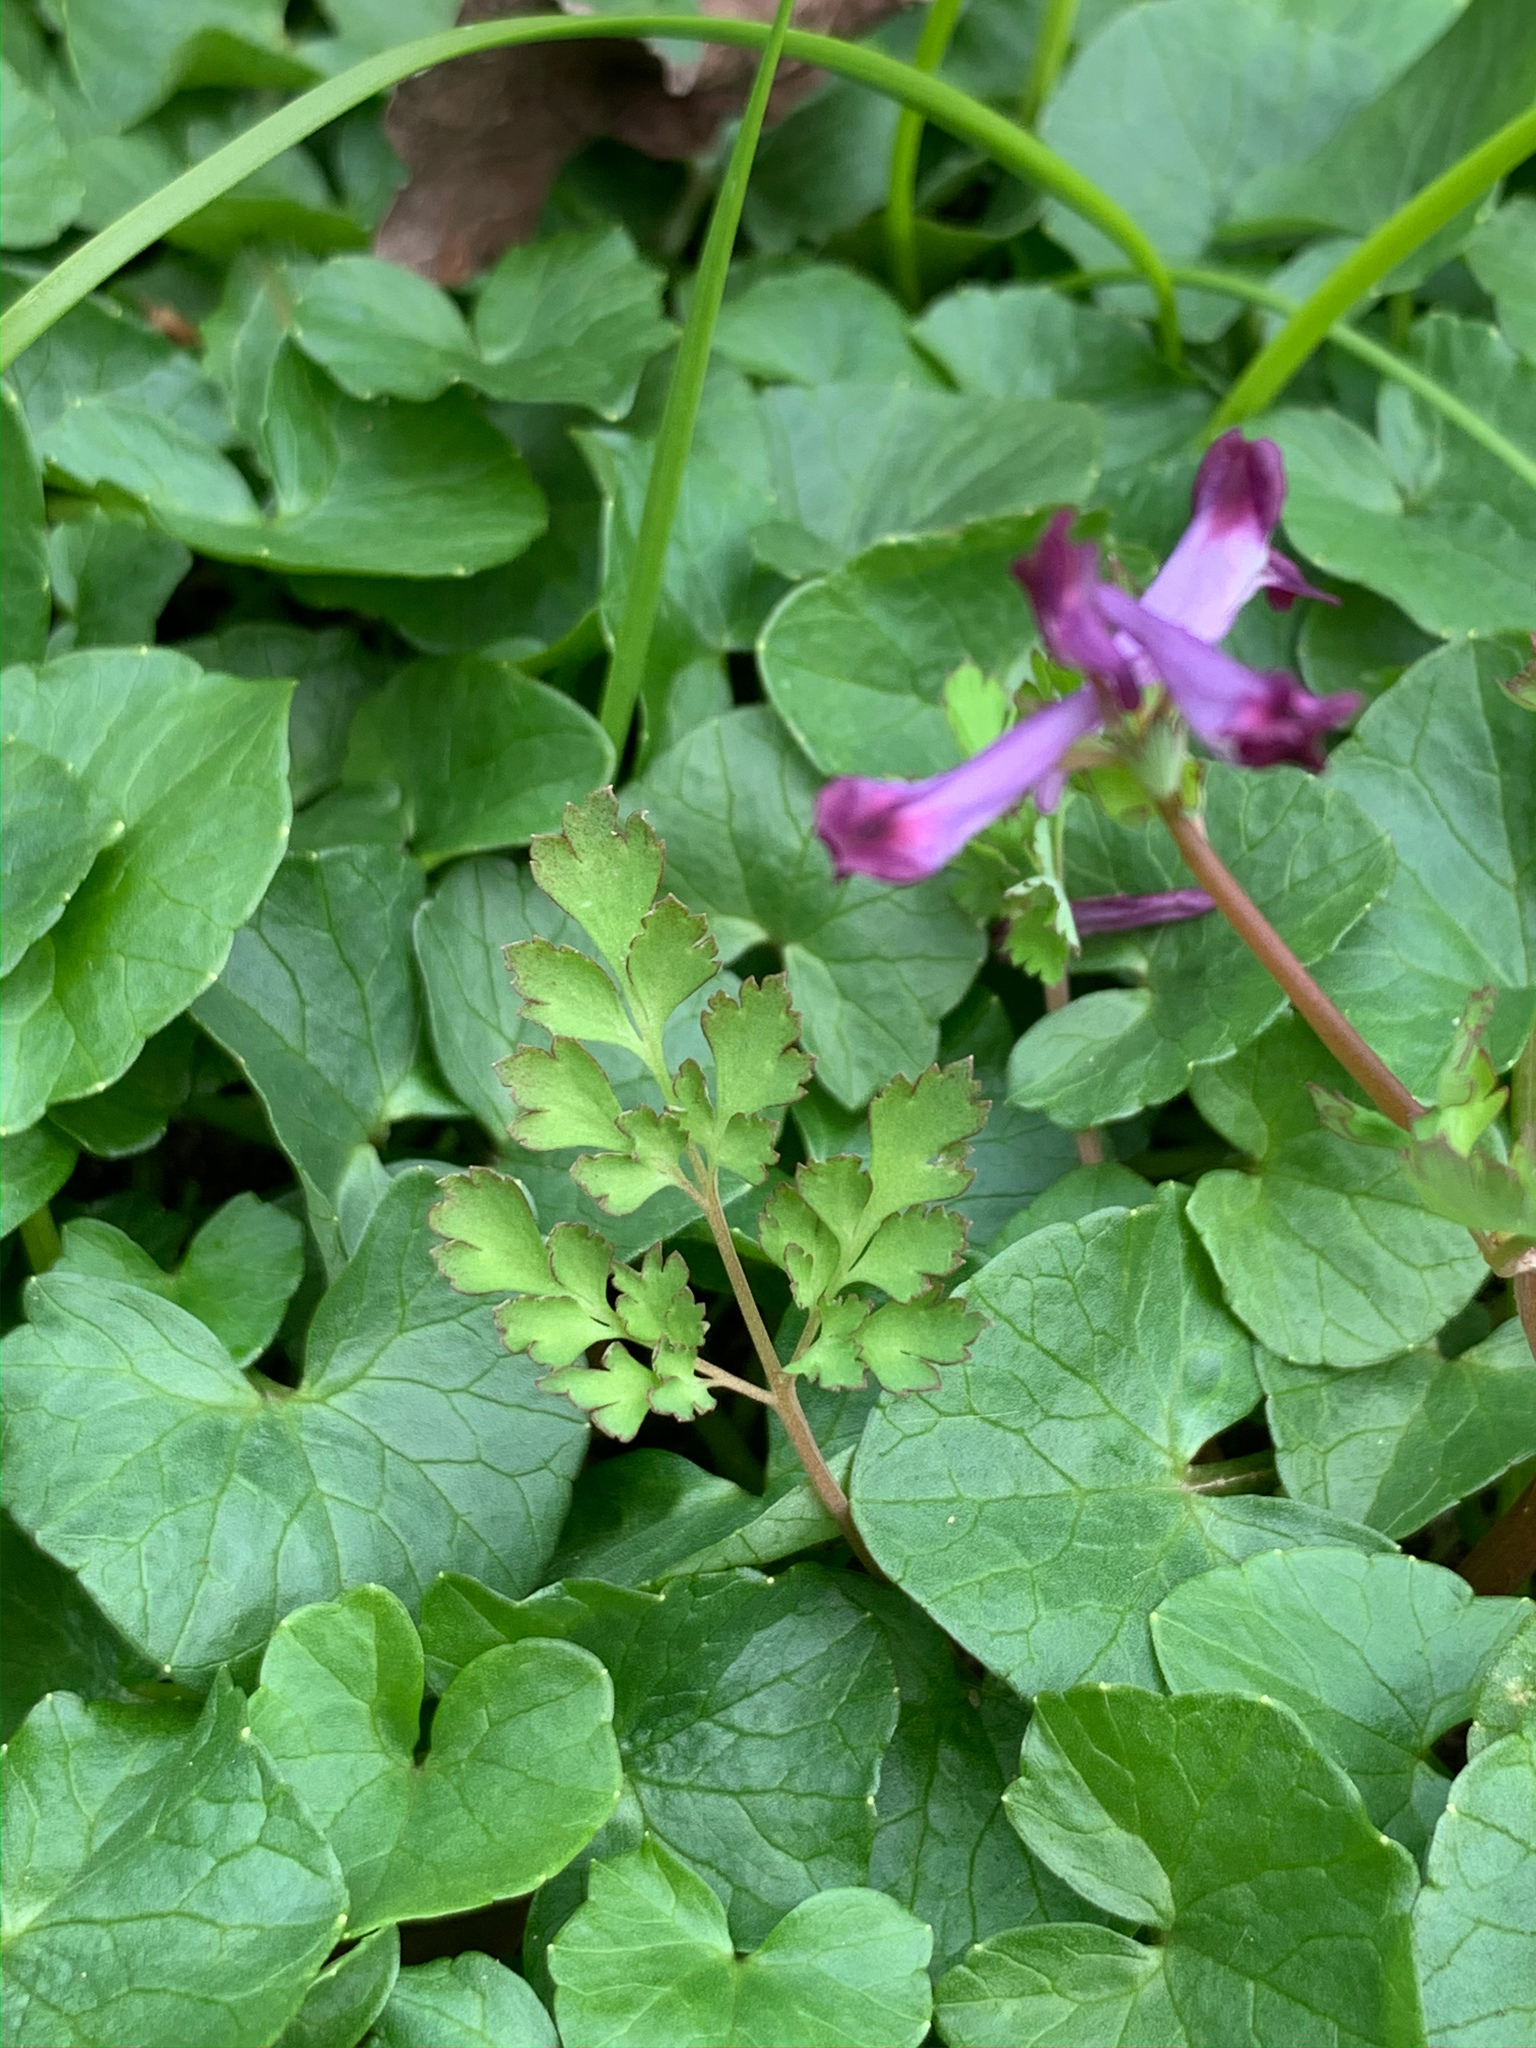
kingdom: Plantae
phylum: Tracheophyta
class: Magnoliopsida
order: Ranunculales
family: Papaveraceae
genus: Corydalis
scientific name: Corydalis incisa
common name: Incised fumewort
